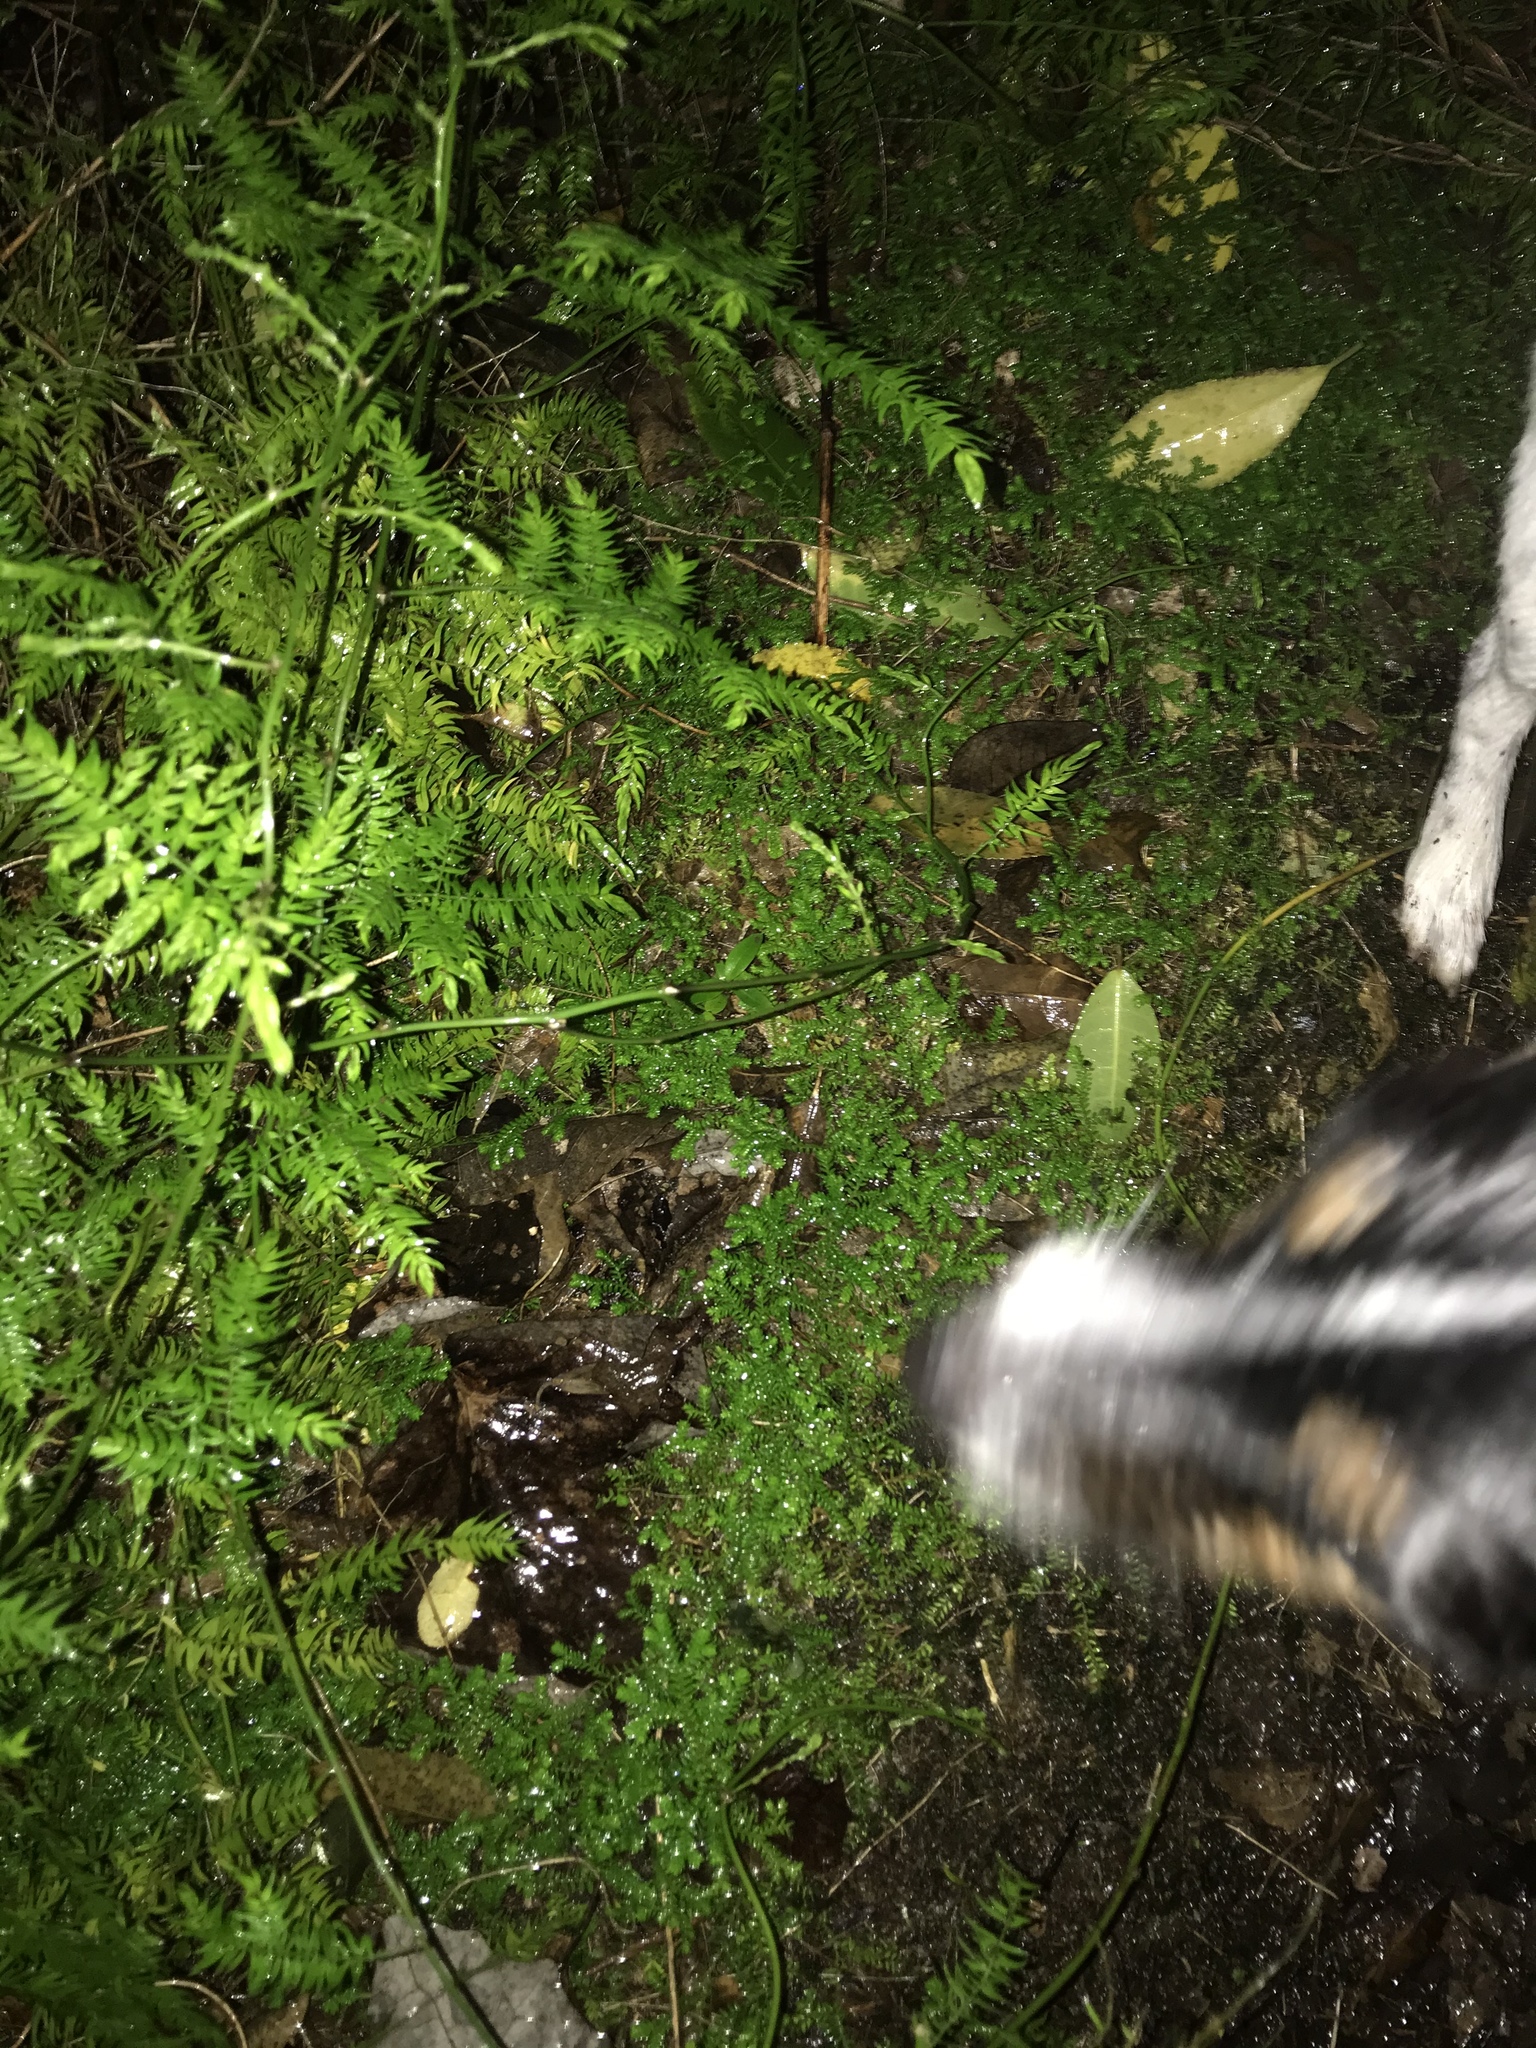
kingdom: Plantae
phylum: Tracheophyta
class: Lycopodiopsida
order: Selaginellales
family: Selaginellaceae
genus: Selaginella
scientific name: Selaginella kraussiana
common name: Krauss' spikemoss
